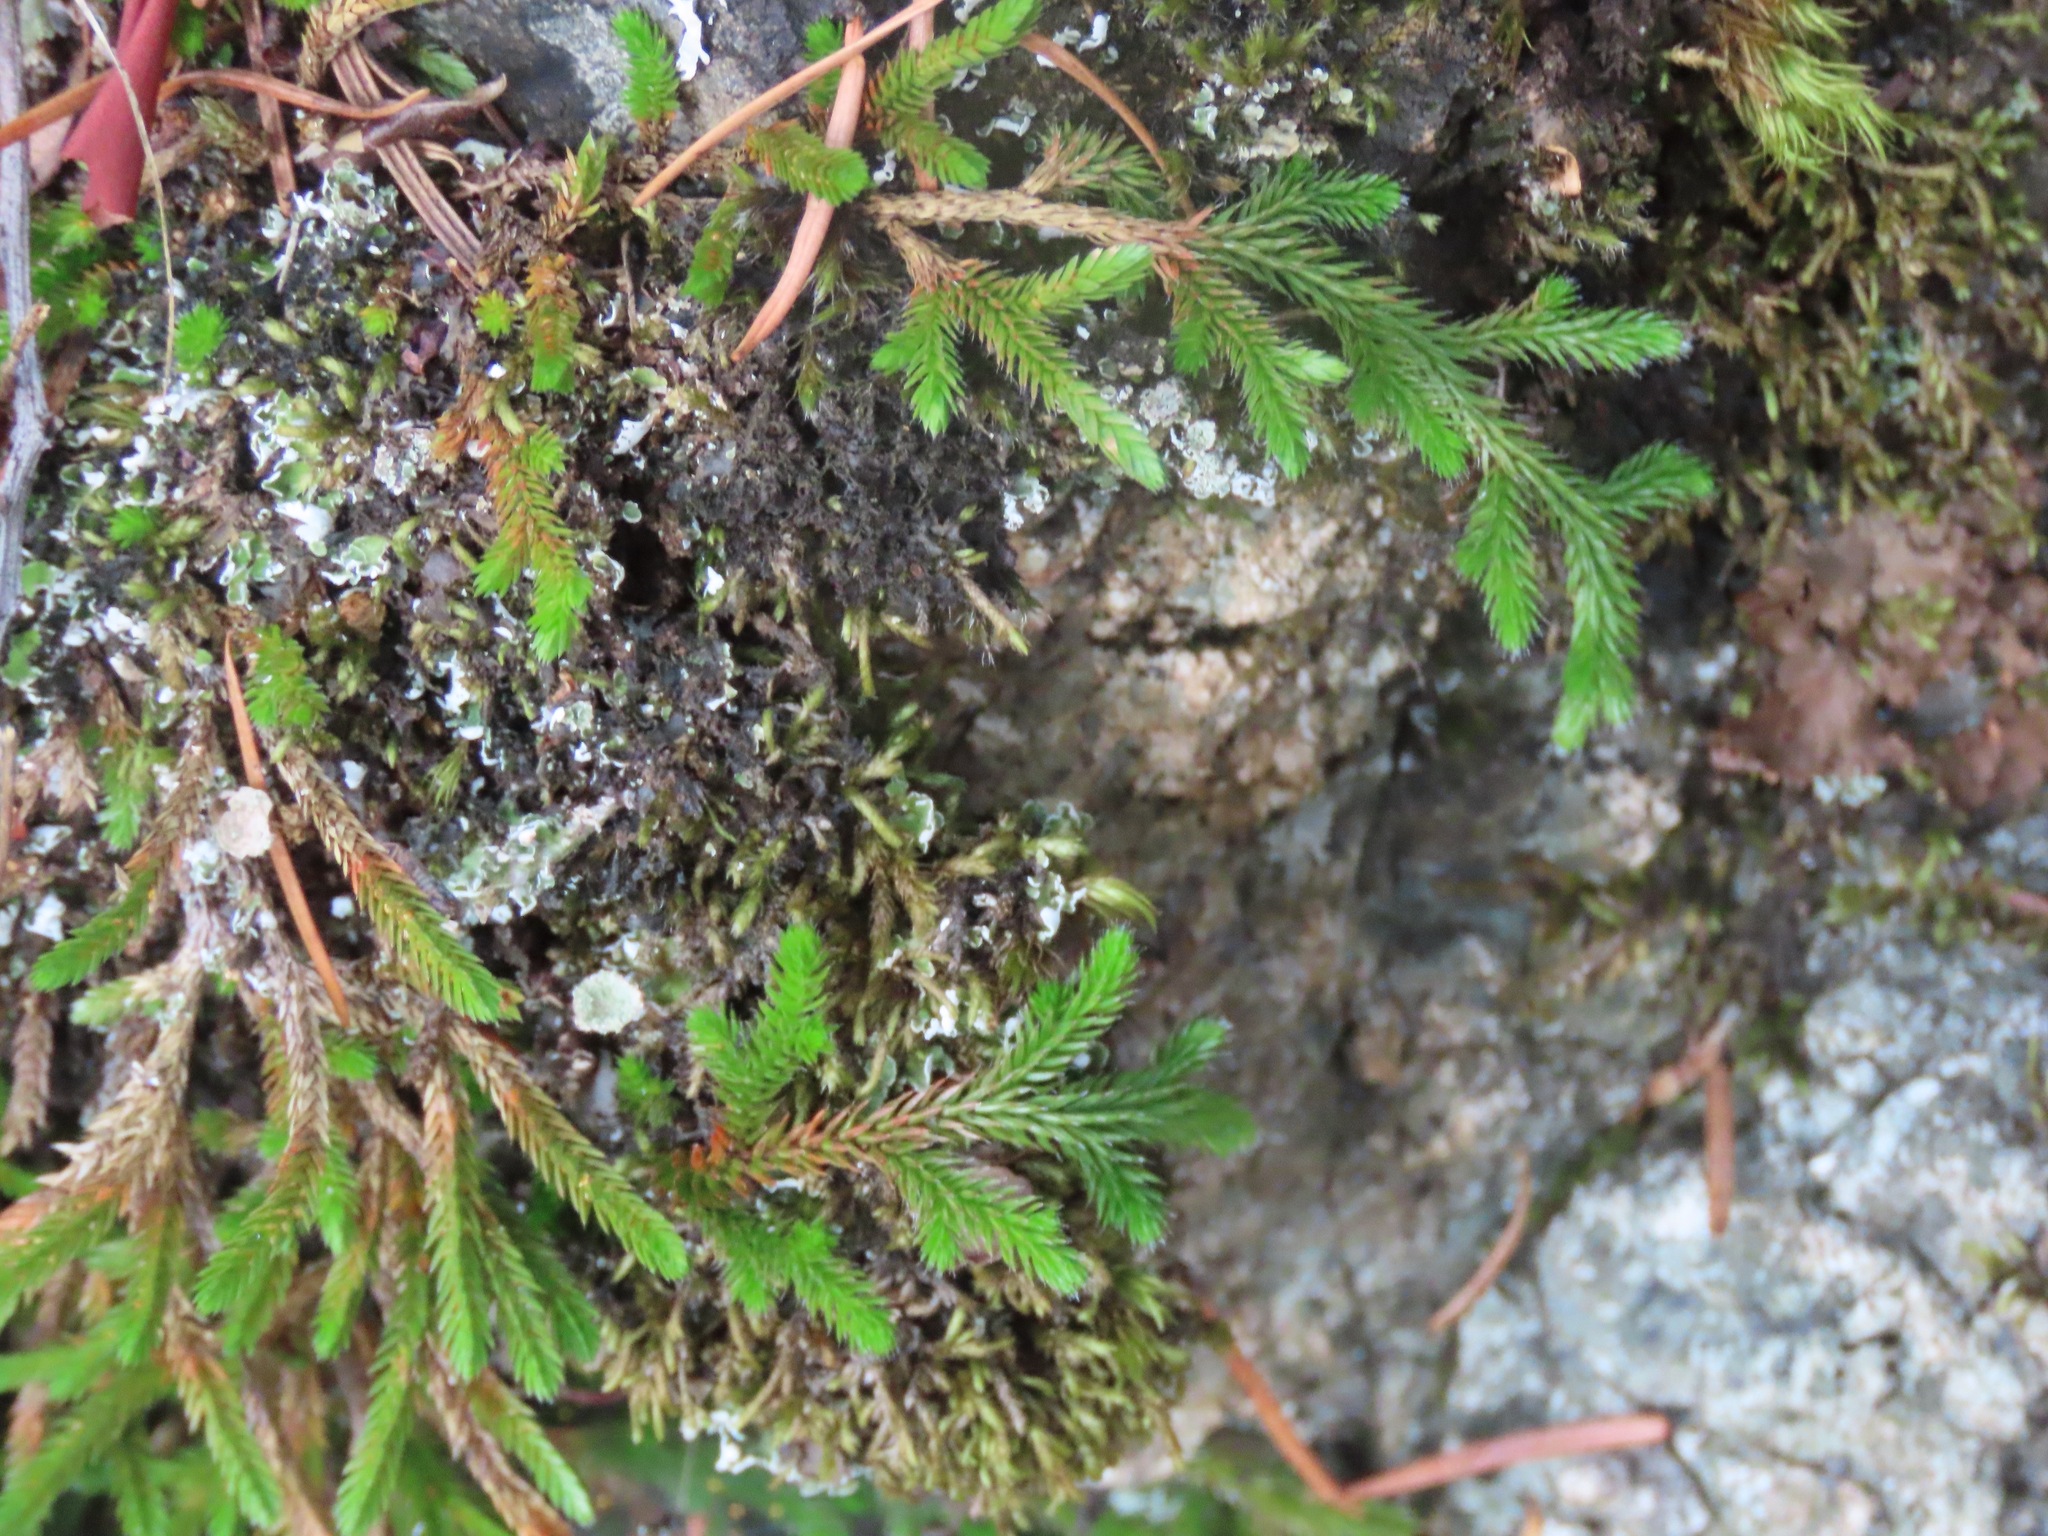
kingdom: Plantae
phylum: Tracheophyta
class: Lycopodiopsida
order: Selaginellales
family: Selaginellaceae
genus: Selaginella
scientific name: Selaginella wallacei
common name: Wallace's selaginella
